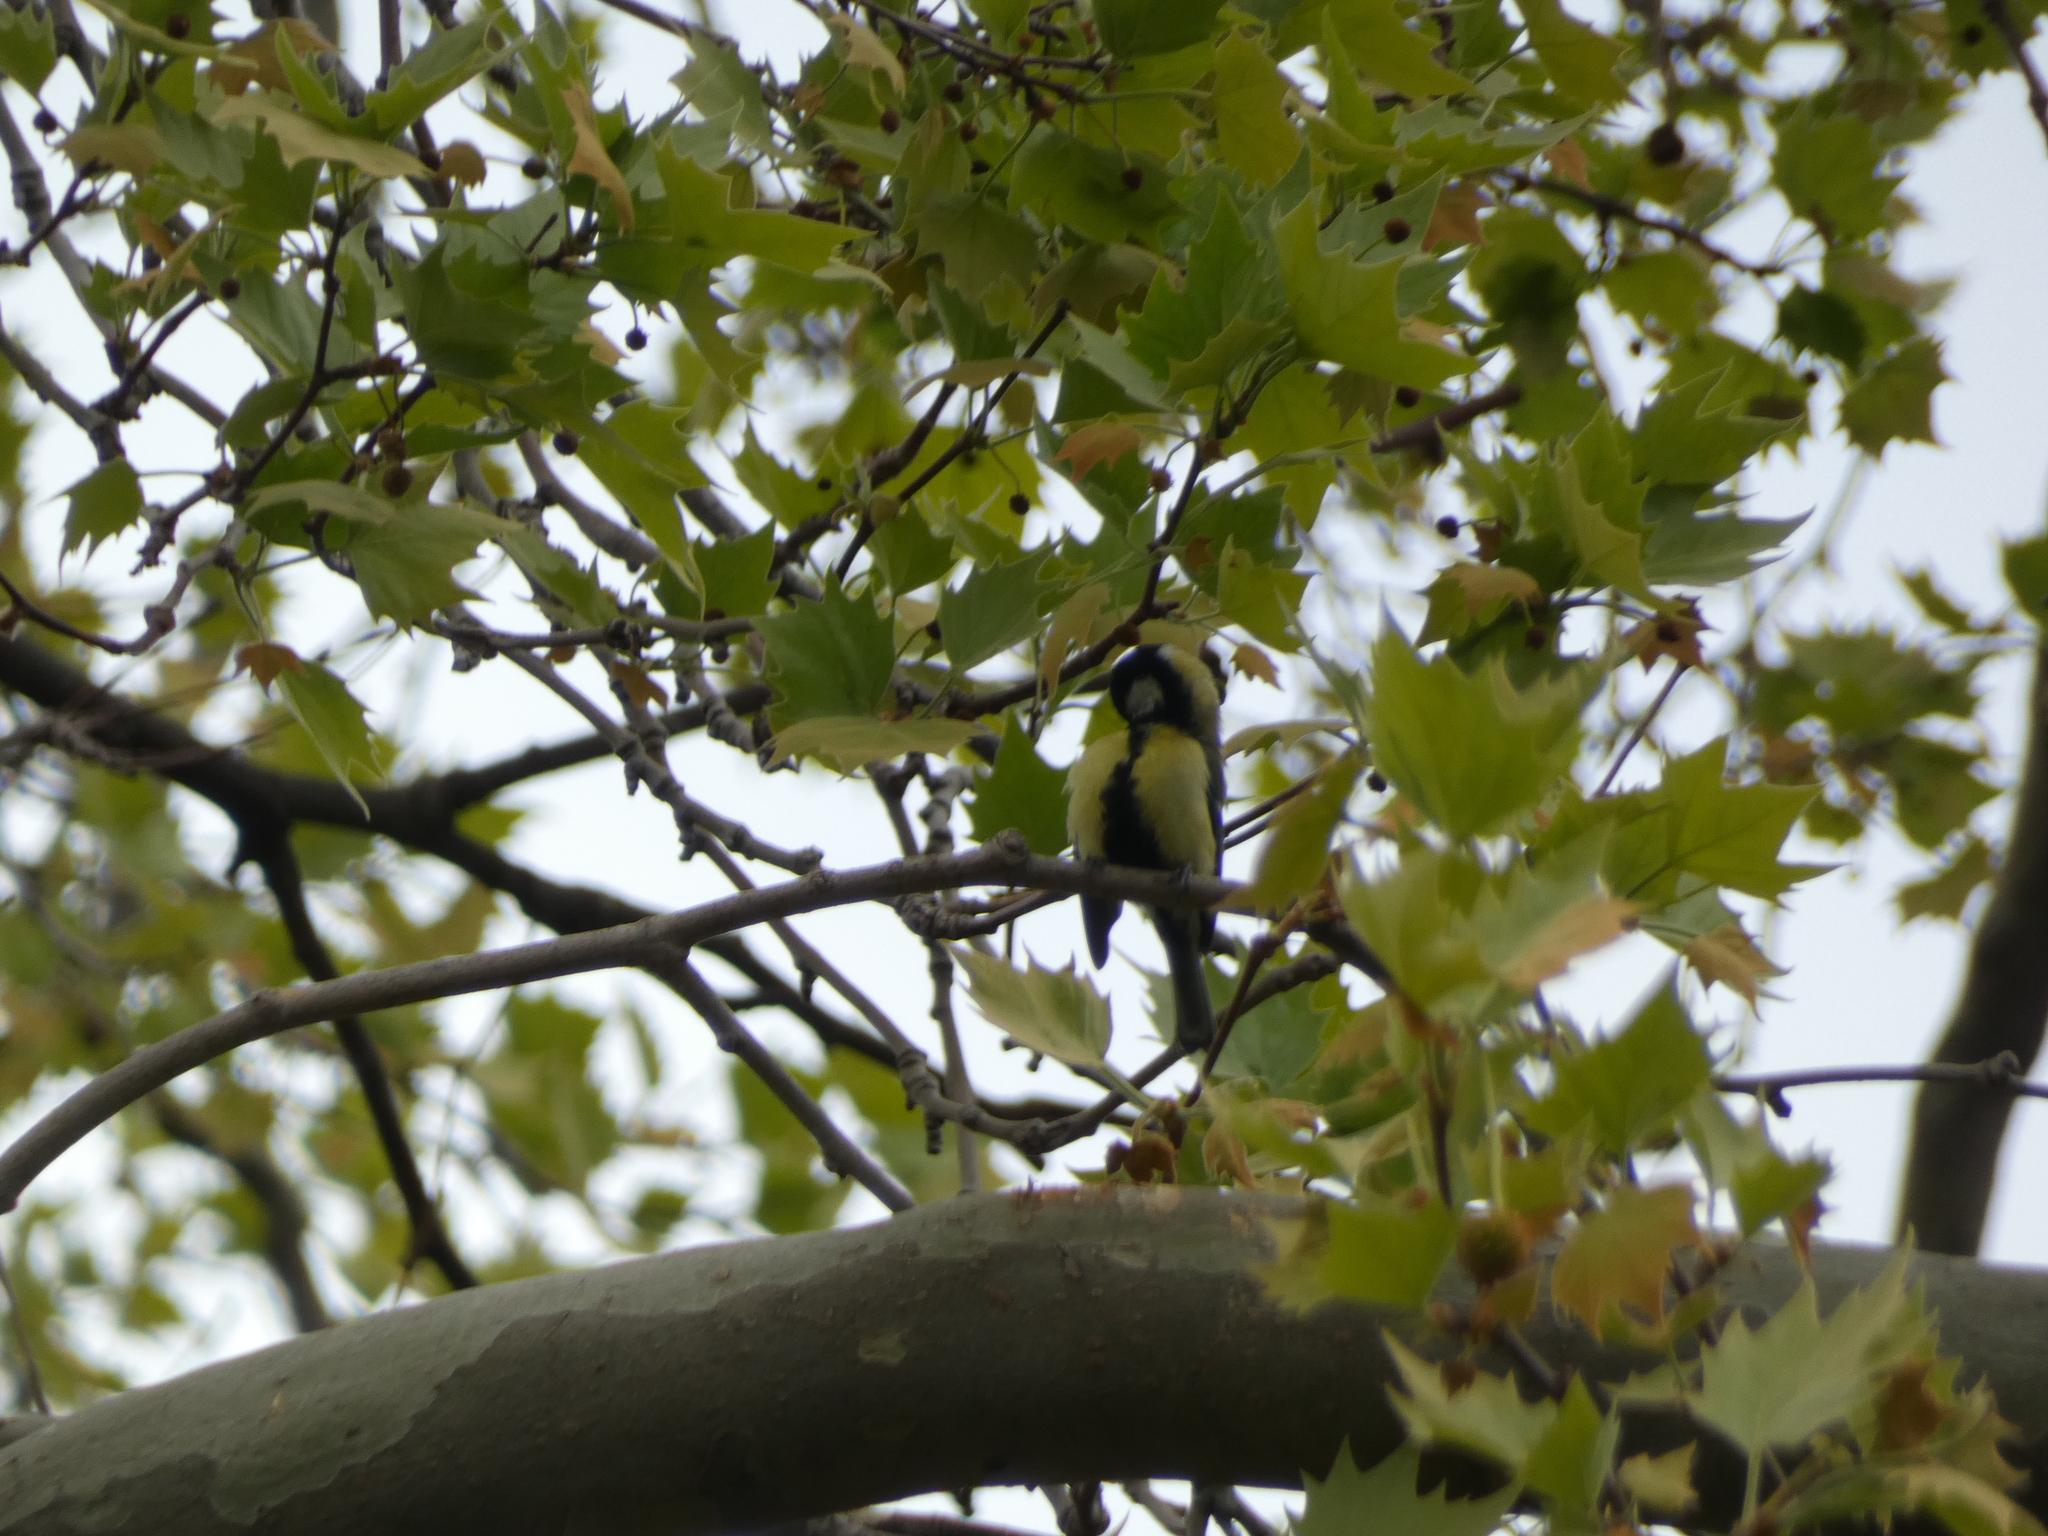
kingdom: Animalia
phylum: Chordata
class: Aves
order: Passeriformes
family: Paridae
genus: Parus
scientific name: Parus major
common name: Great tit
